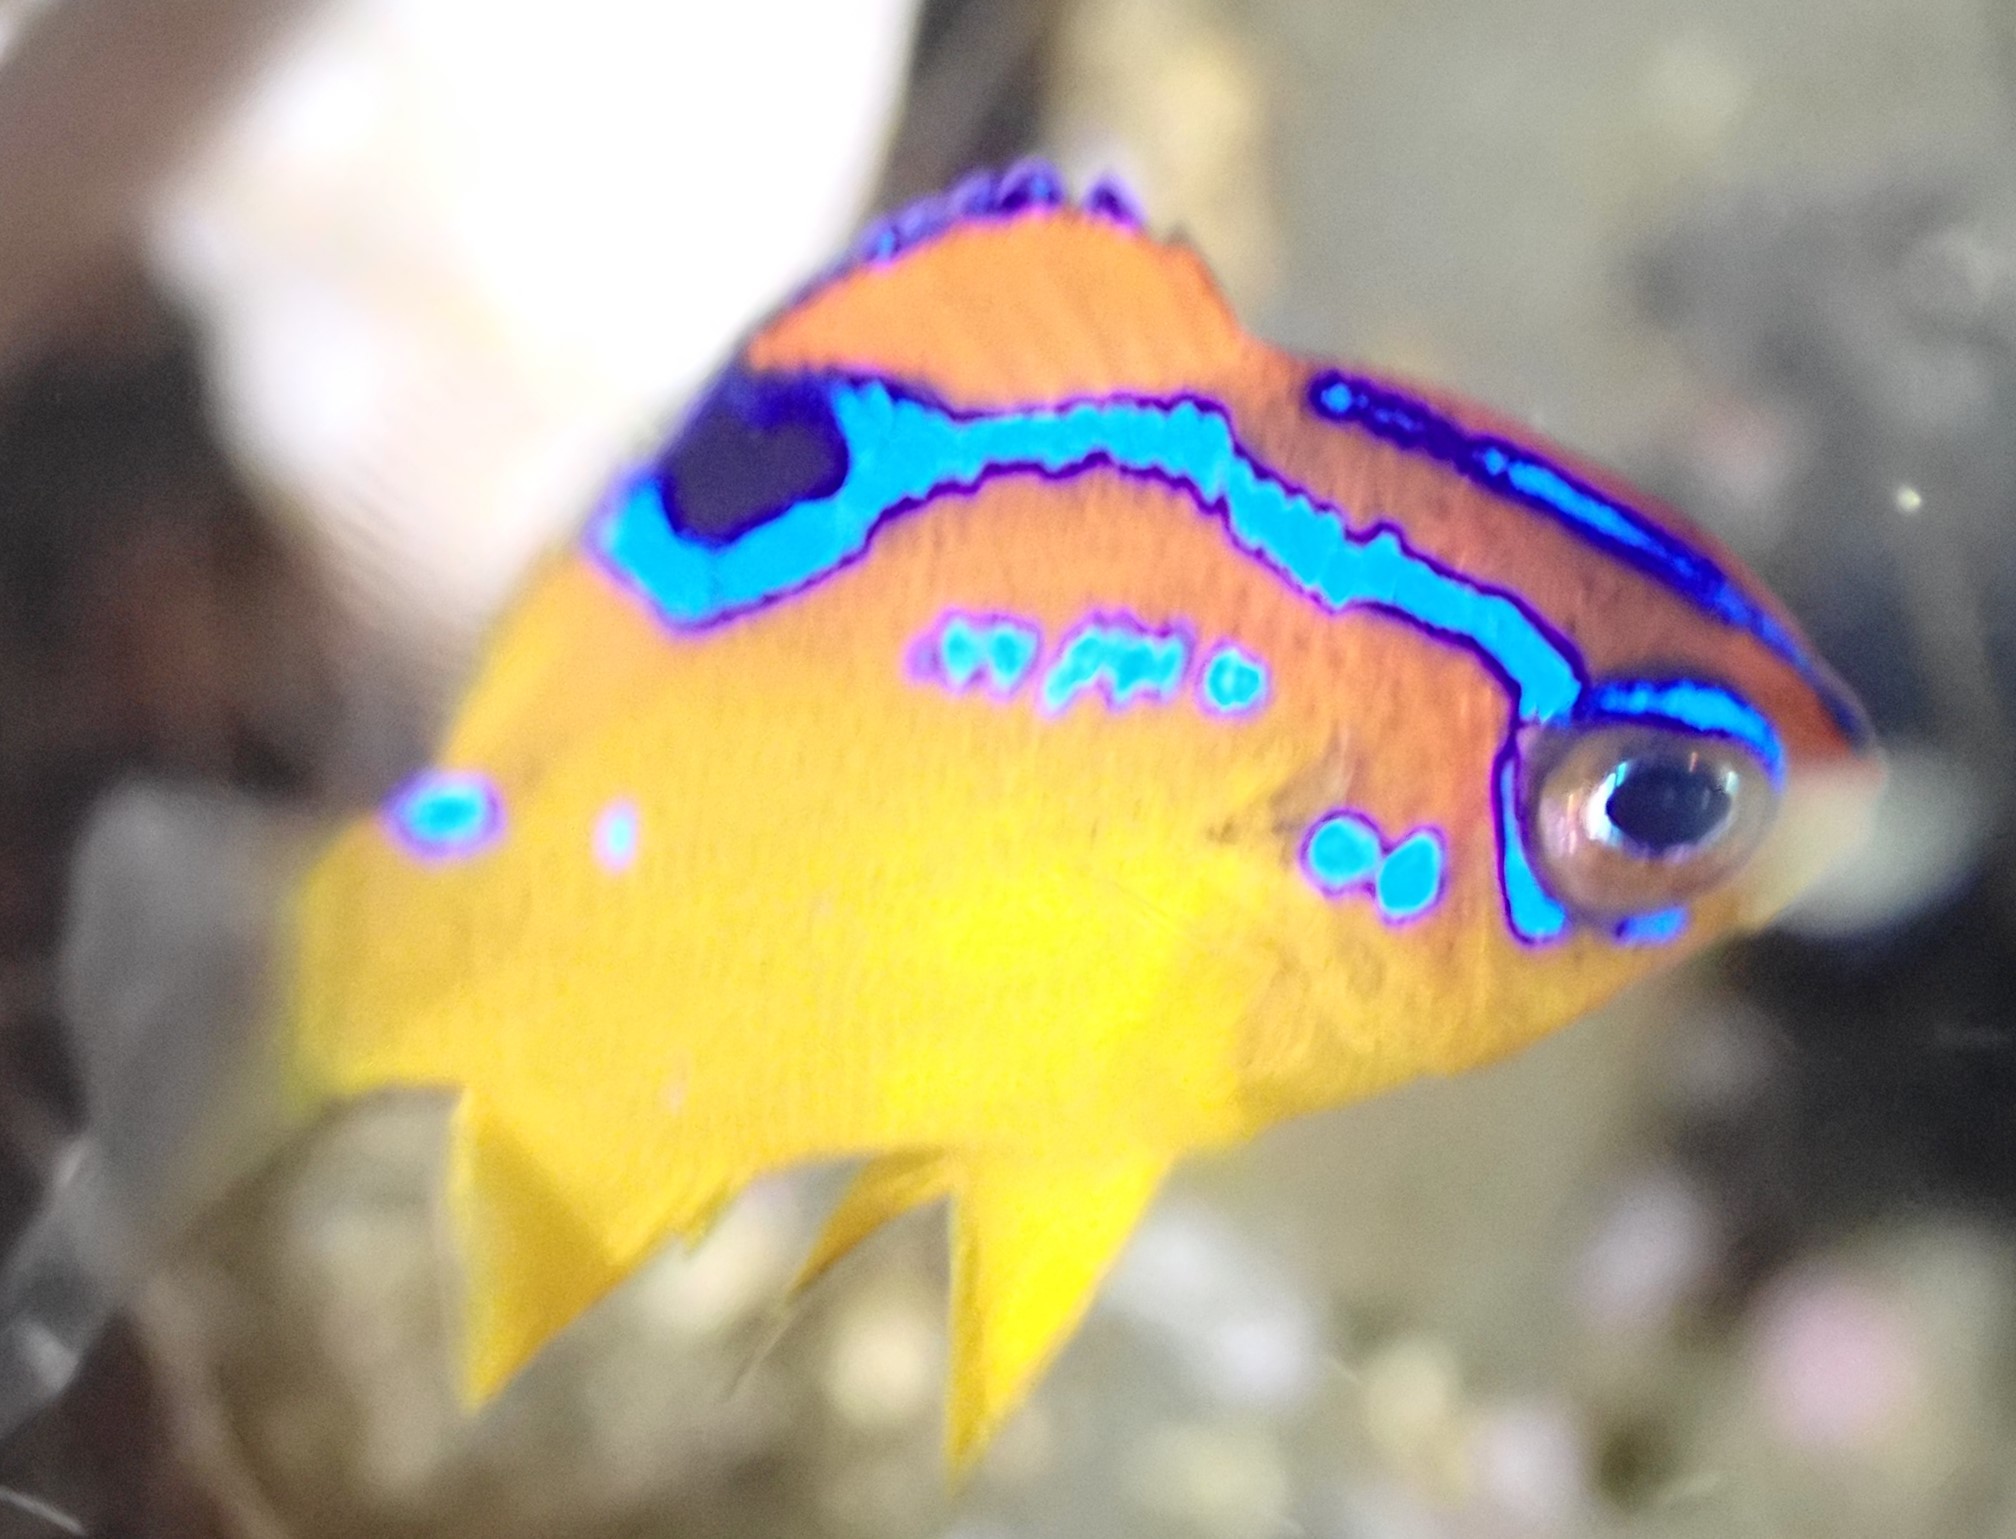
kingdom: Animalia
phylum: Chordata
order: Perciformes
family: Pomacentridae
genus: Parma
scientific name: Parma alboscapularis
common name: Black angelfish
